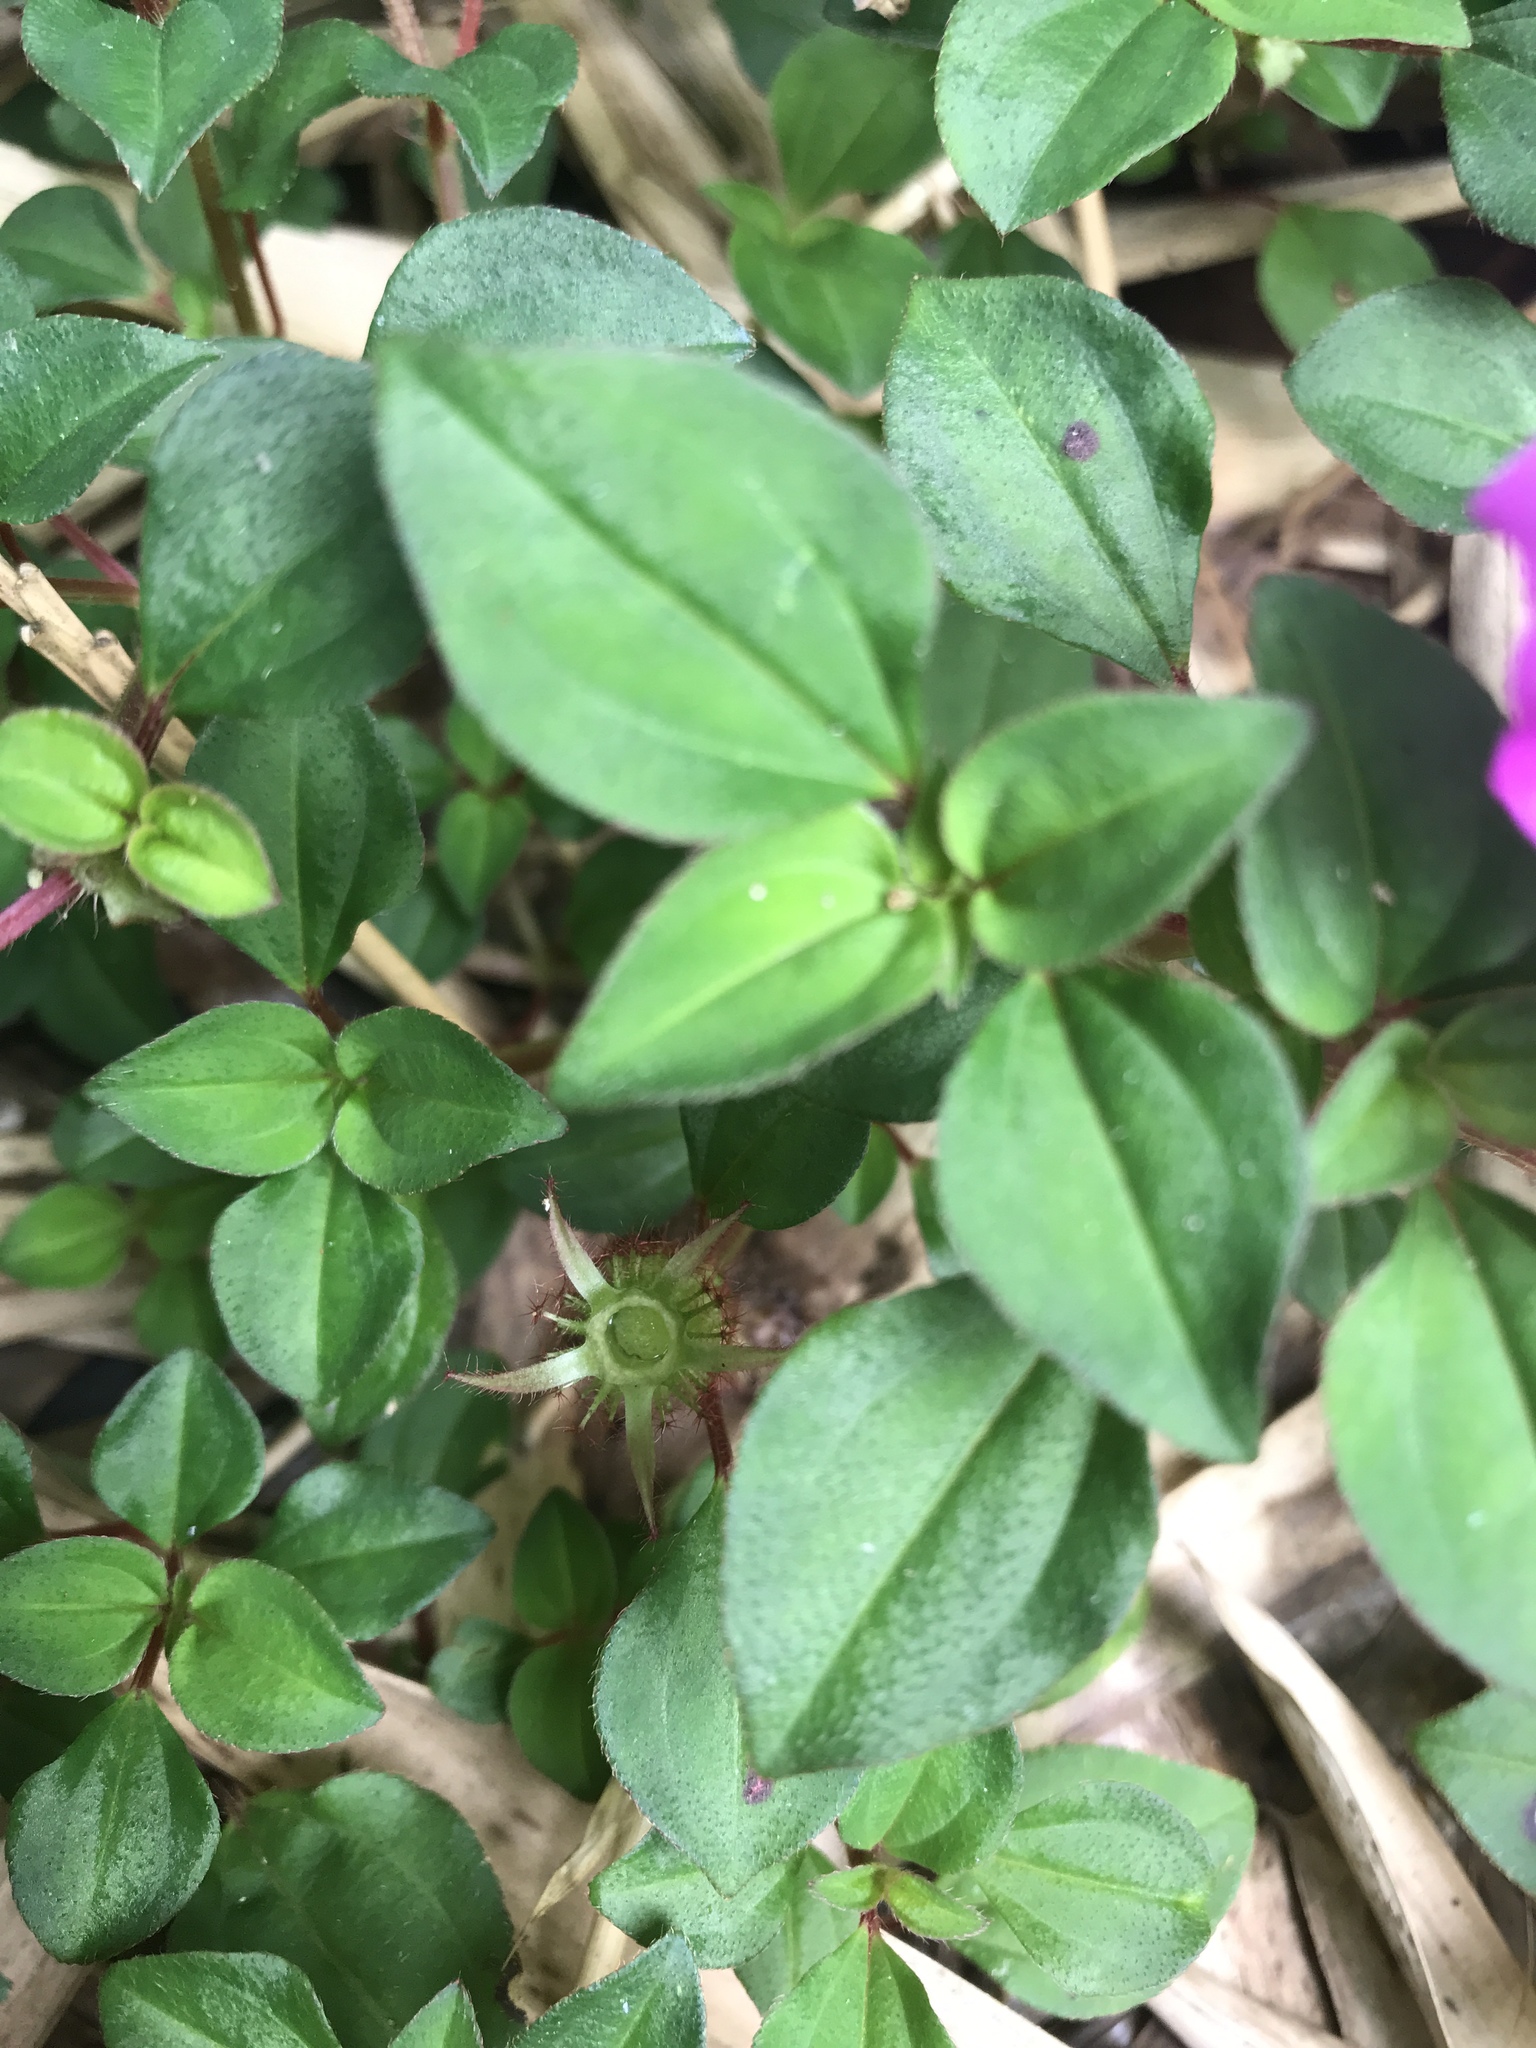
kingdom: Plantae
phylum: Tracheophyta
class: Magnoliopsida
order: Myrtales
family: Melastomataceae
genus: Heterotis
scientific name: Heterotis rotundifolia
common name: Pinklady
